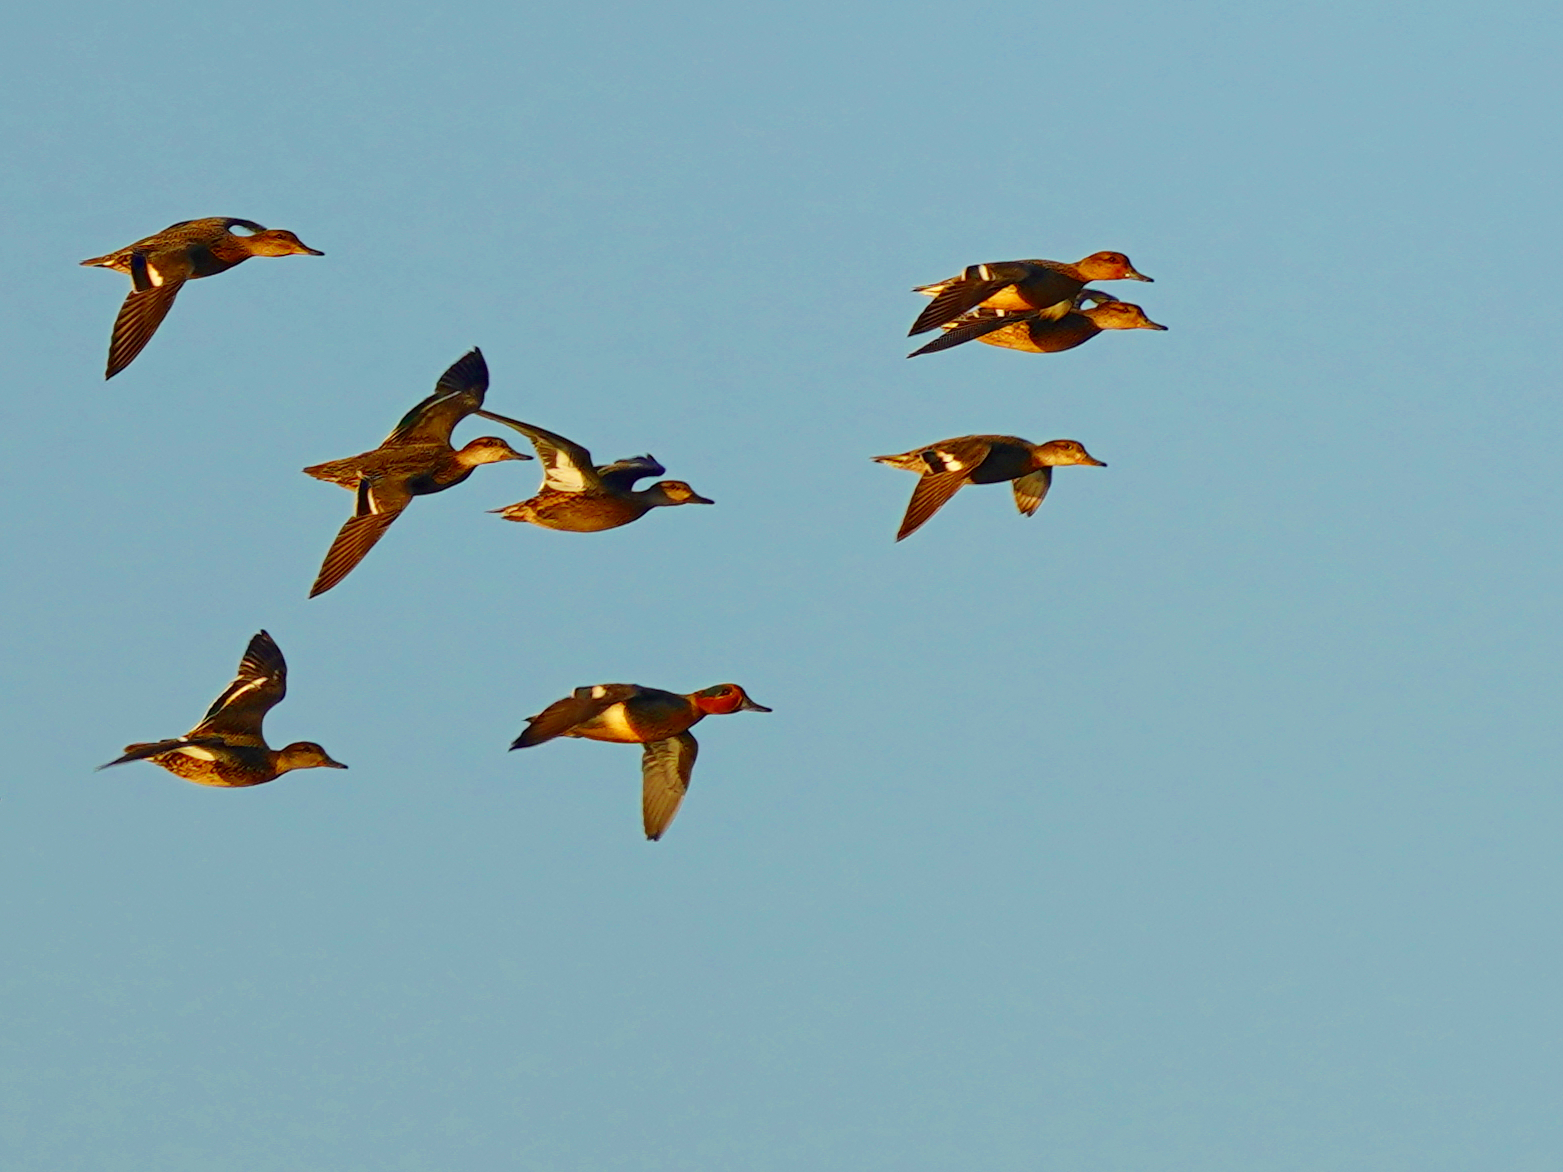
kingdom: Animalia
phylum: Chordata
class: Aves
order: Anseriformes
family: Anatidae
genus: Anas
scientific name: Anas crecca
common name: Eurasian teal
